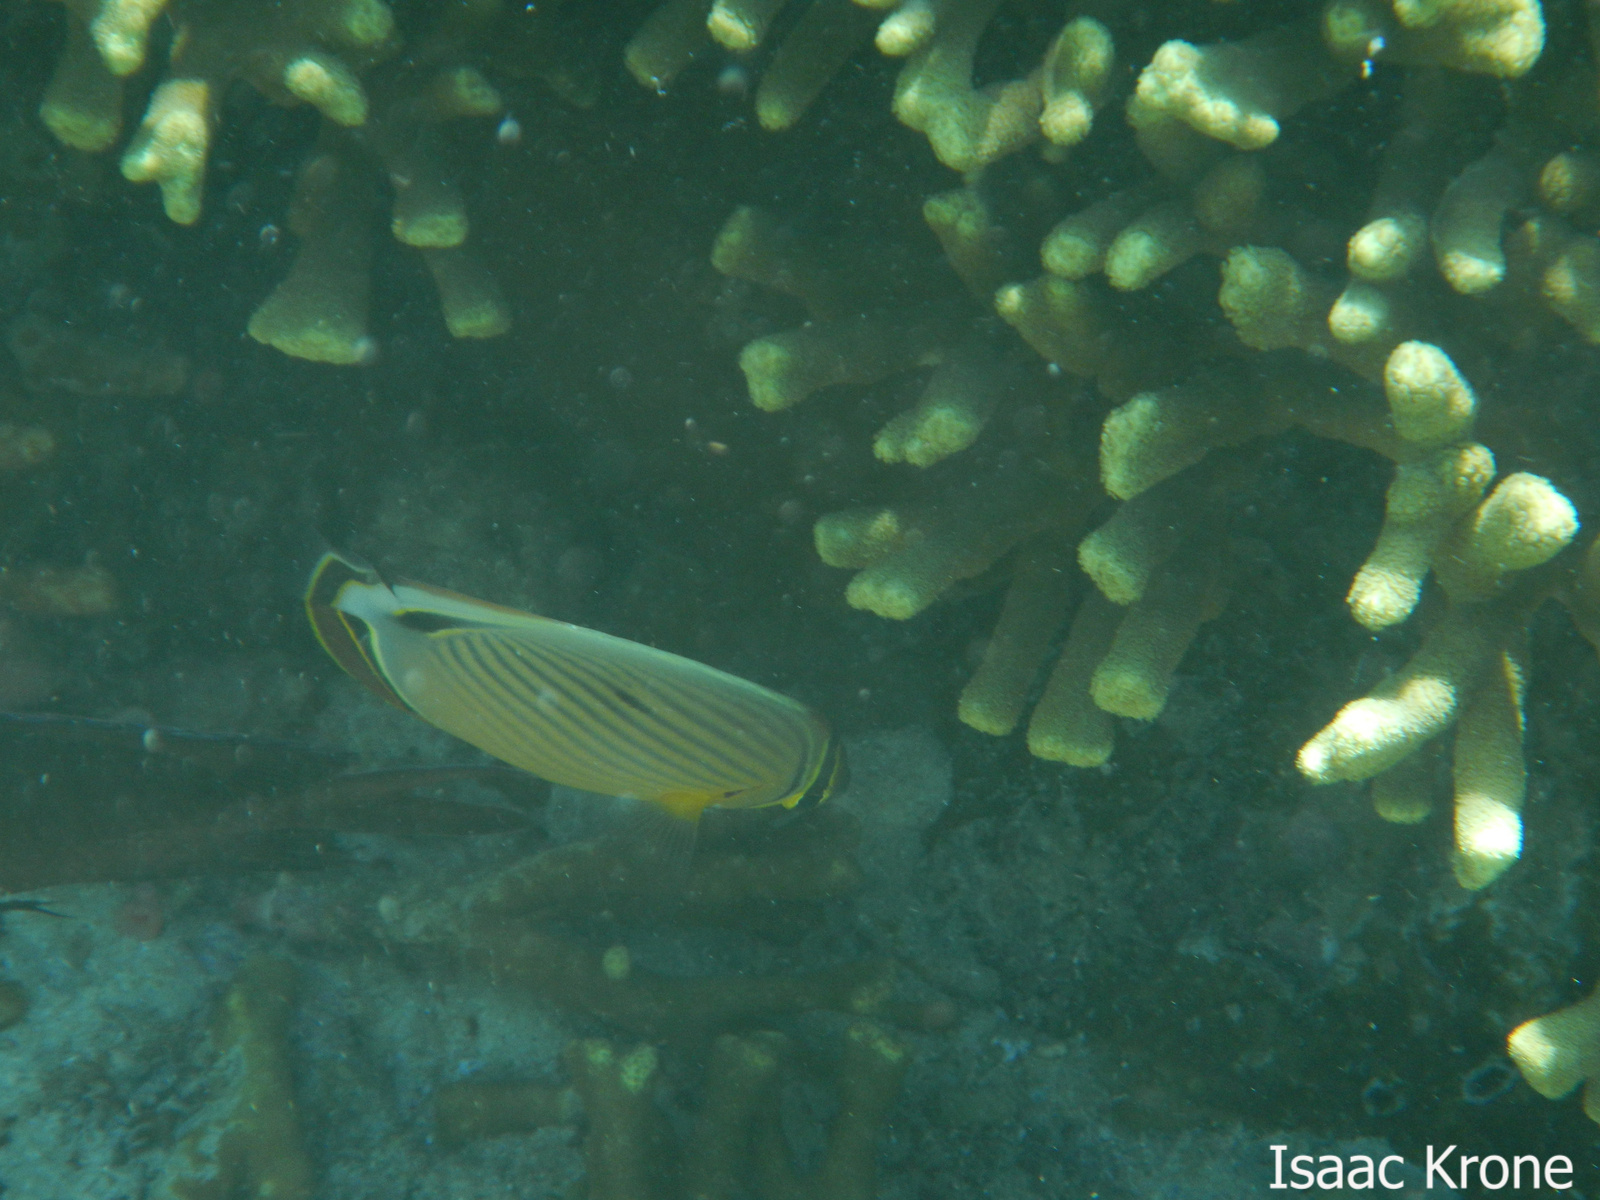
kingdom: Animalia
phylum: Chordata
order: Perciformes
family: Chaetodontidae
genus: Chaetodon
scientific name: Chaetodon lunulatus
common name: Redfin butterflyfish
